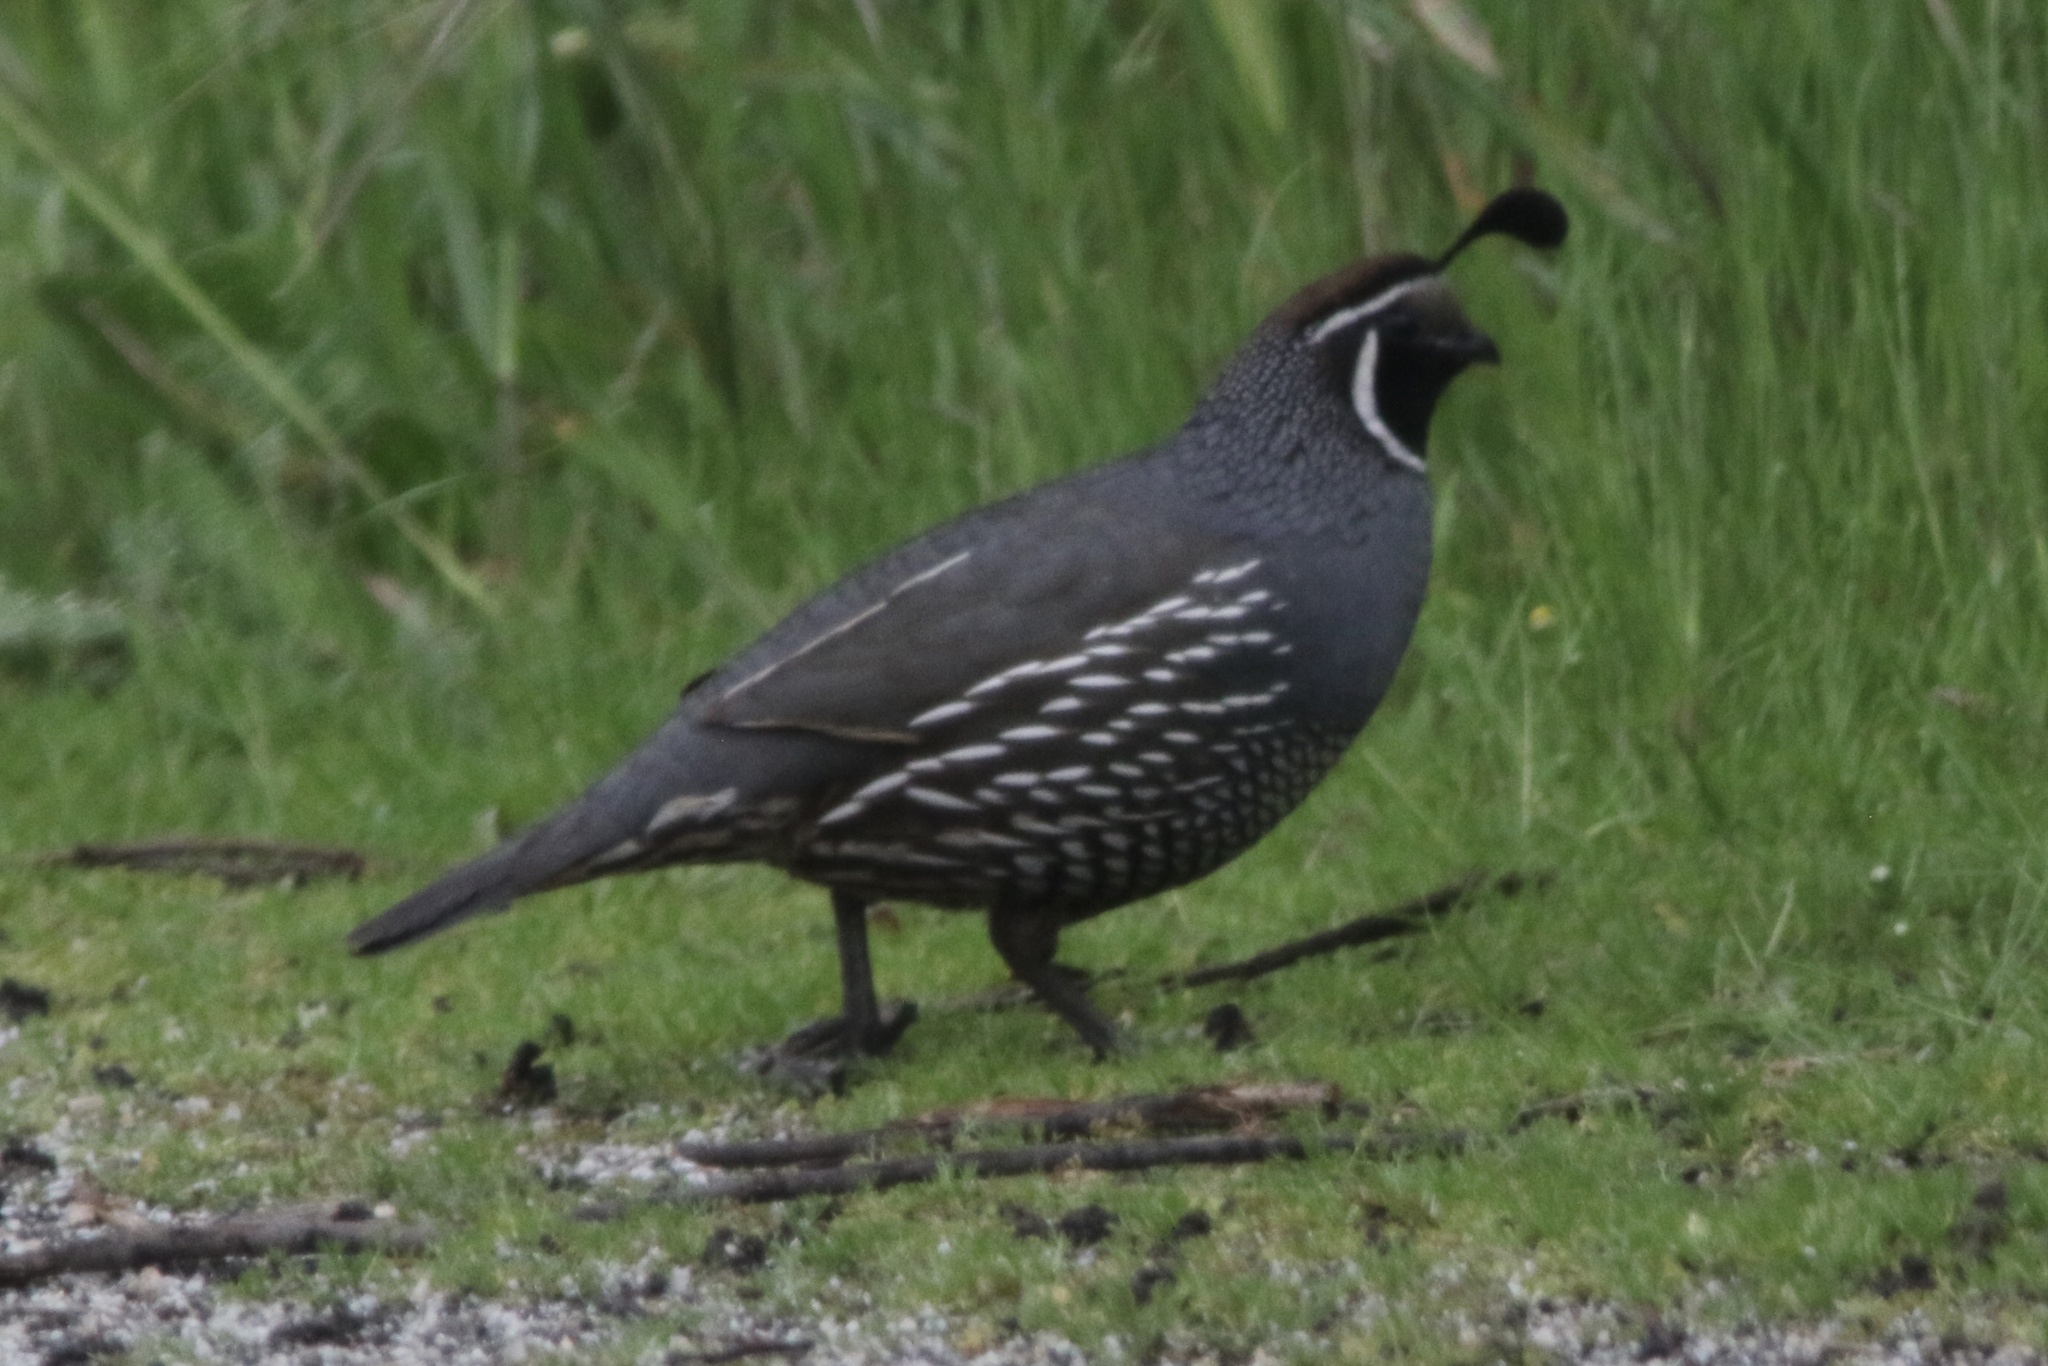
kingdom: Animalia
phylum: Chordata
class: Aves
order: Galliformes
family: Odontophoridae
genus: Callipepla
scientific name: Callipepla californica
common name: California quail
